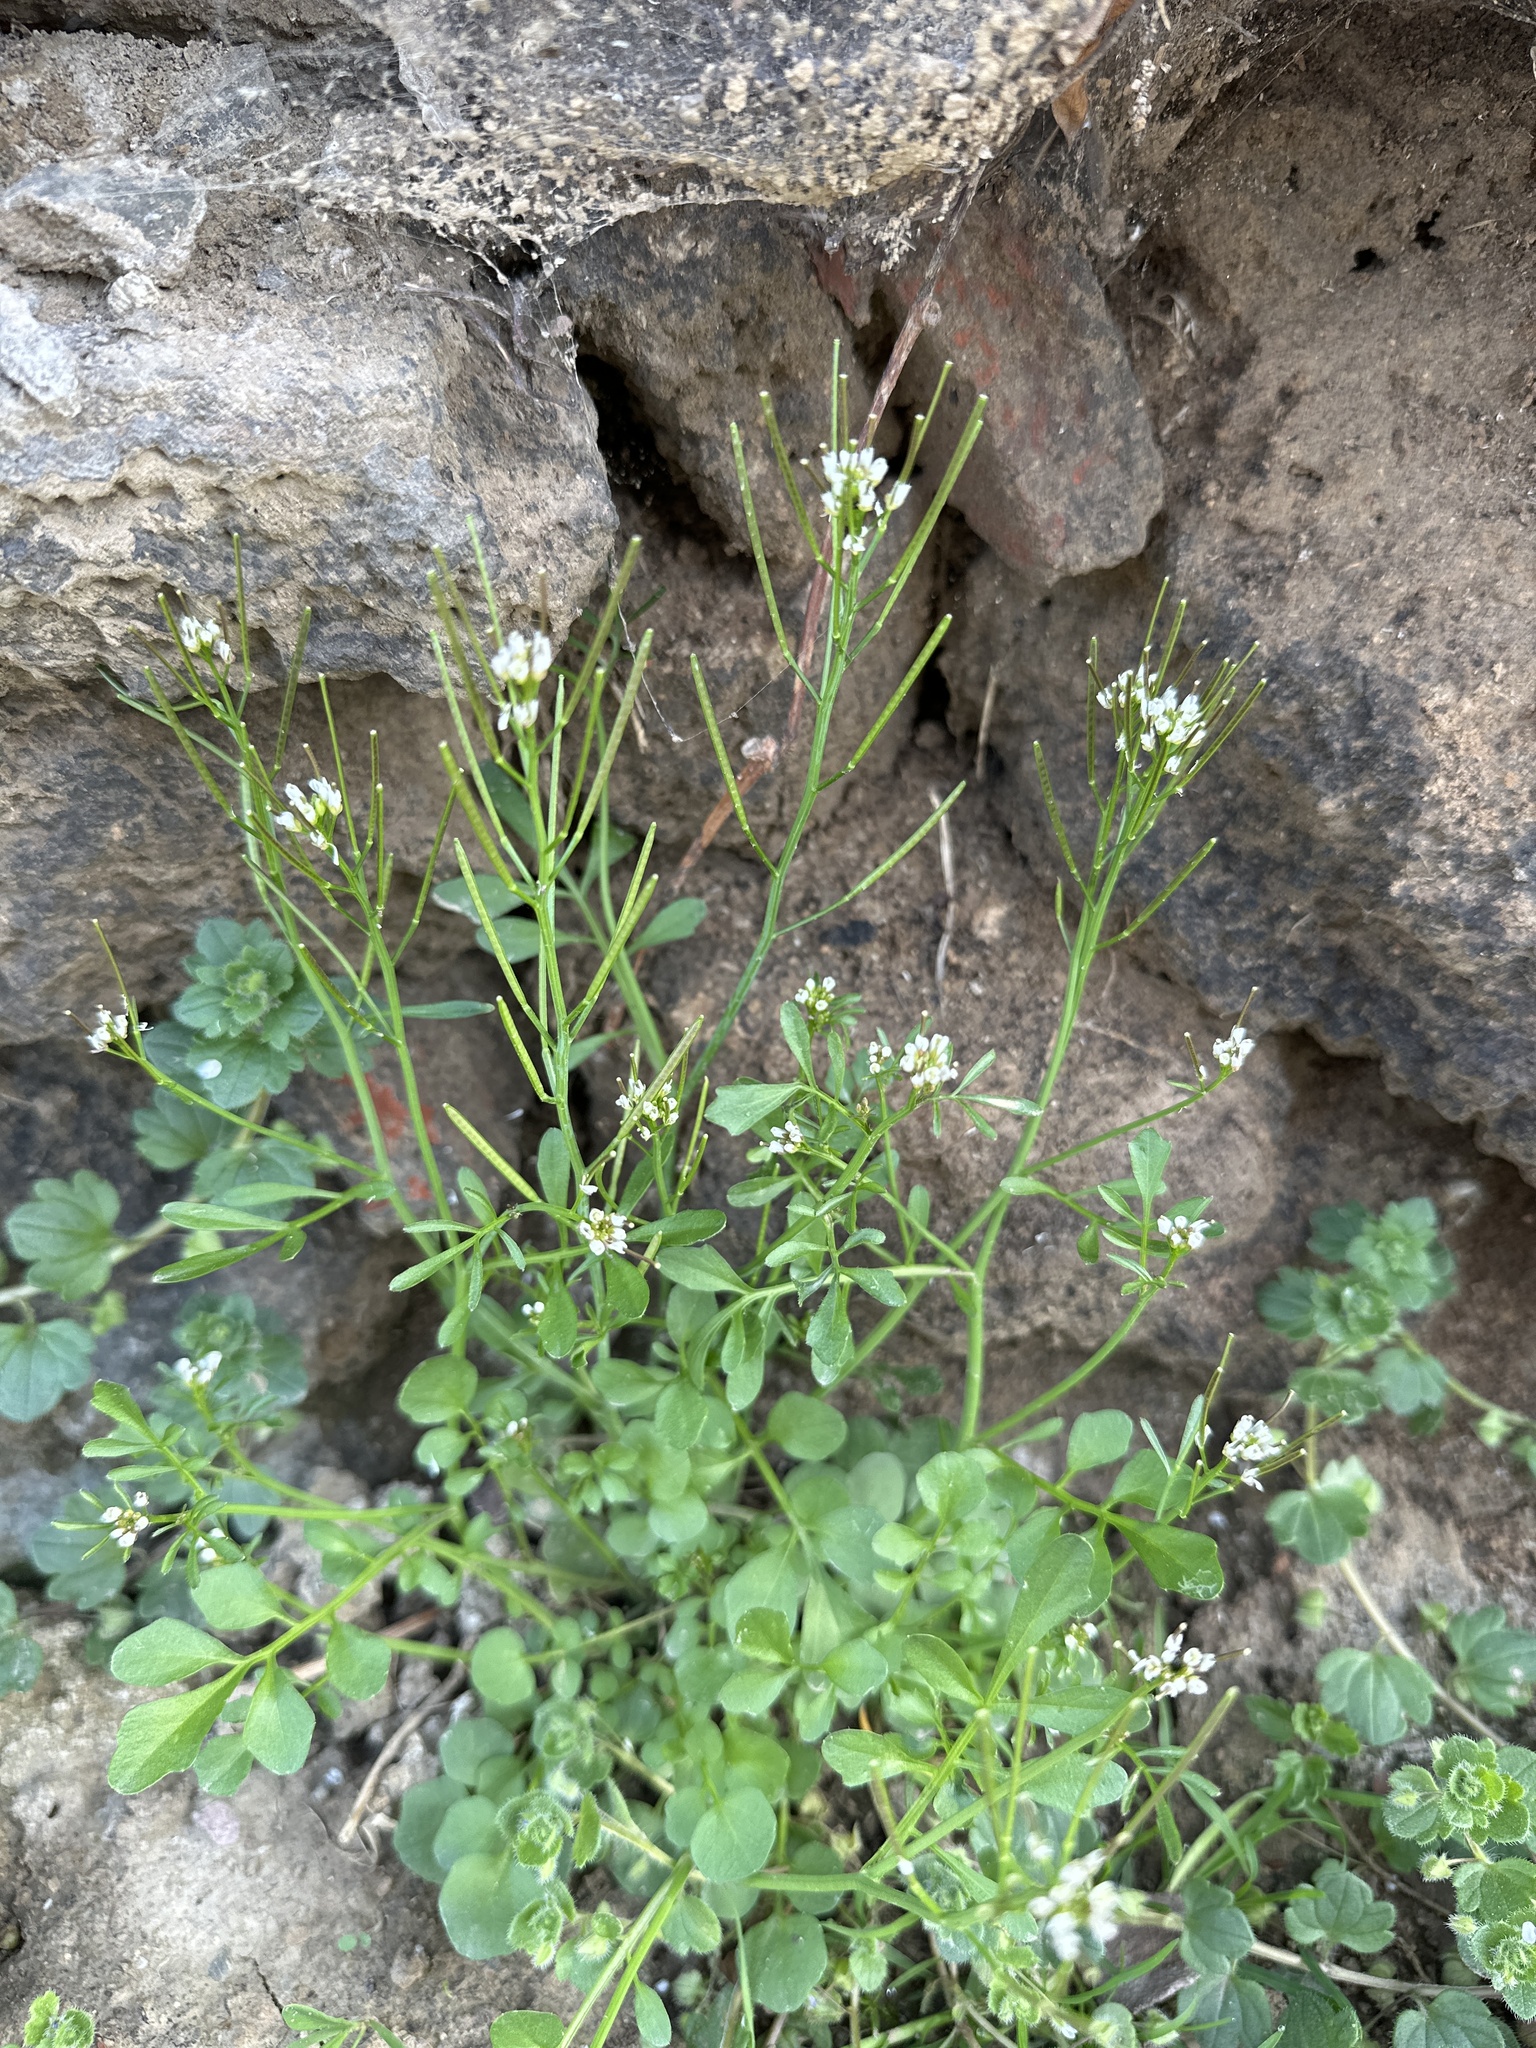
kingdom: Plantae
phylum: Tracheophyta
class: Magnoliopsida
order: Brassicales
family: Brassicaceae
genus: Cardamine
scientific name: Cardamine hirsuta
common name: Hairy bittercress
